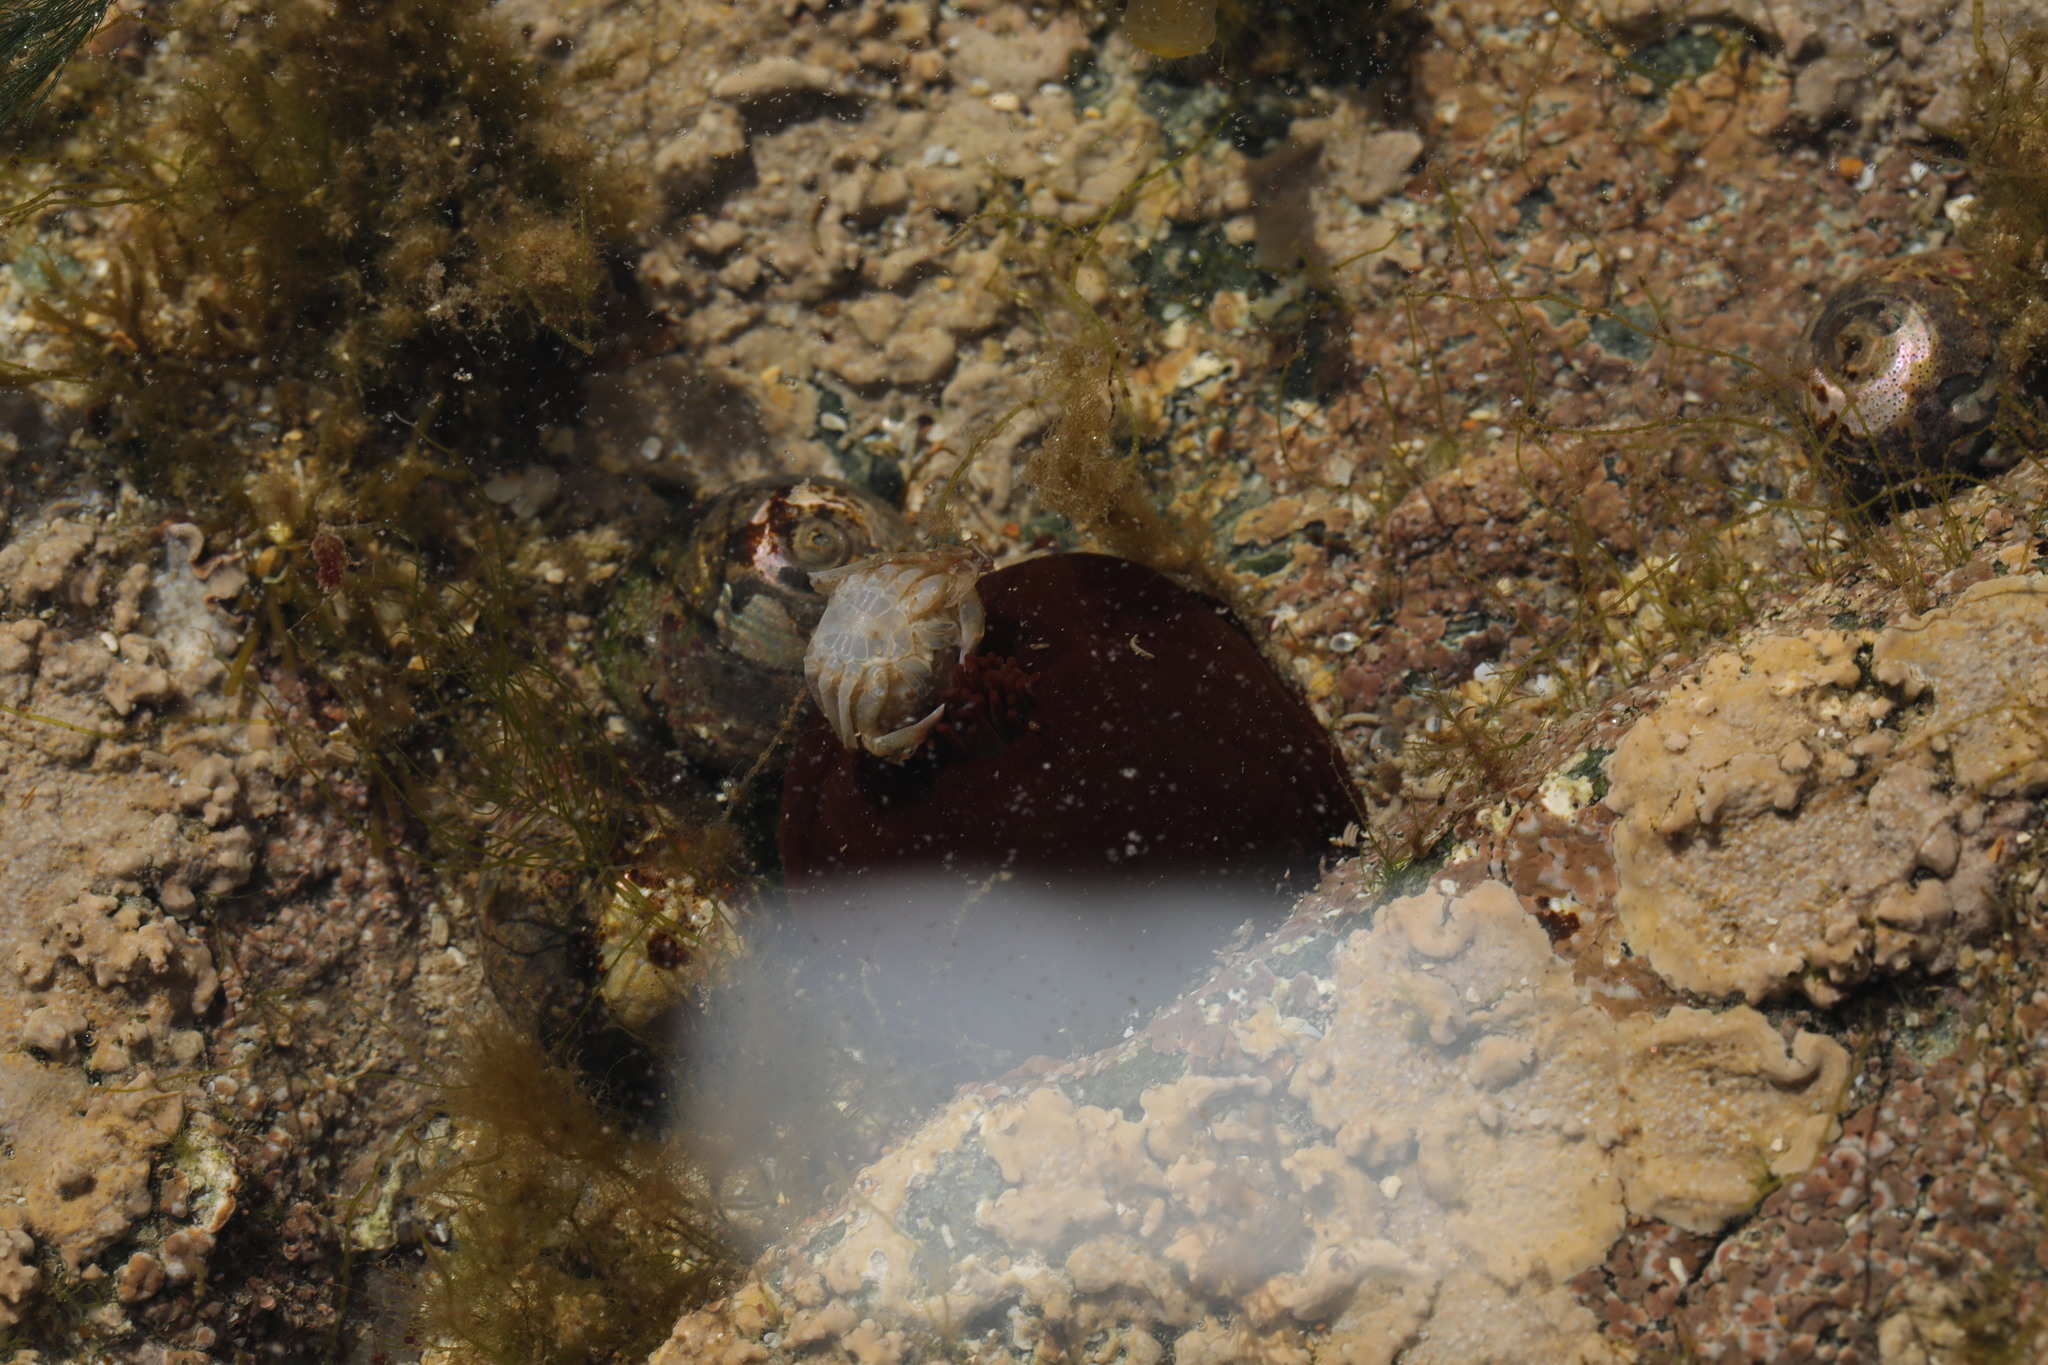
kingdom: Animalia
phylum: Cnidaria
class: Anthozoa
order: Actiniaria
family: Actiniidae
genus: Actinia
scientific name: Actinia equina
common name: Beadlet anemone
